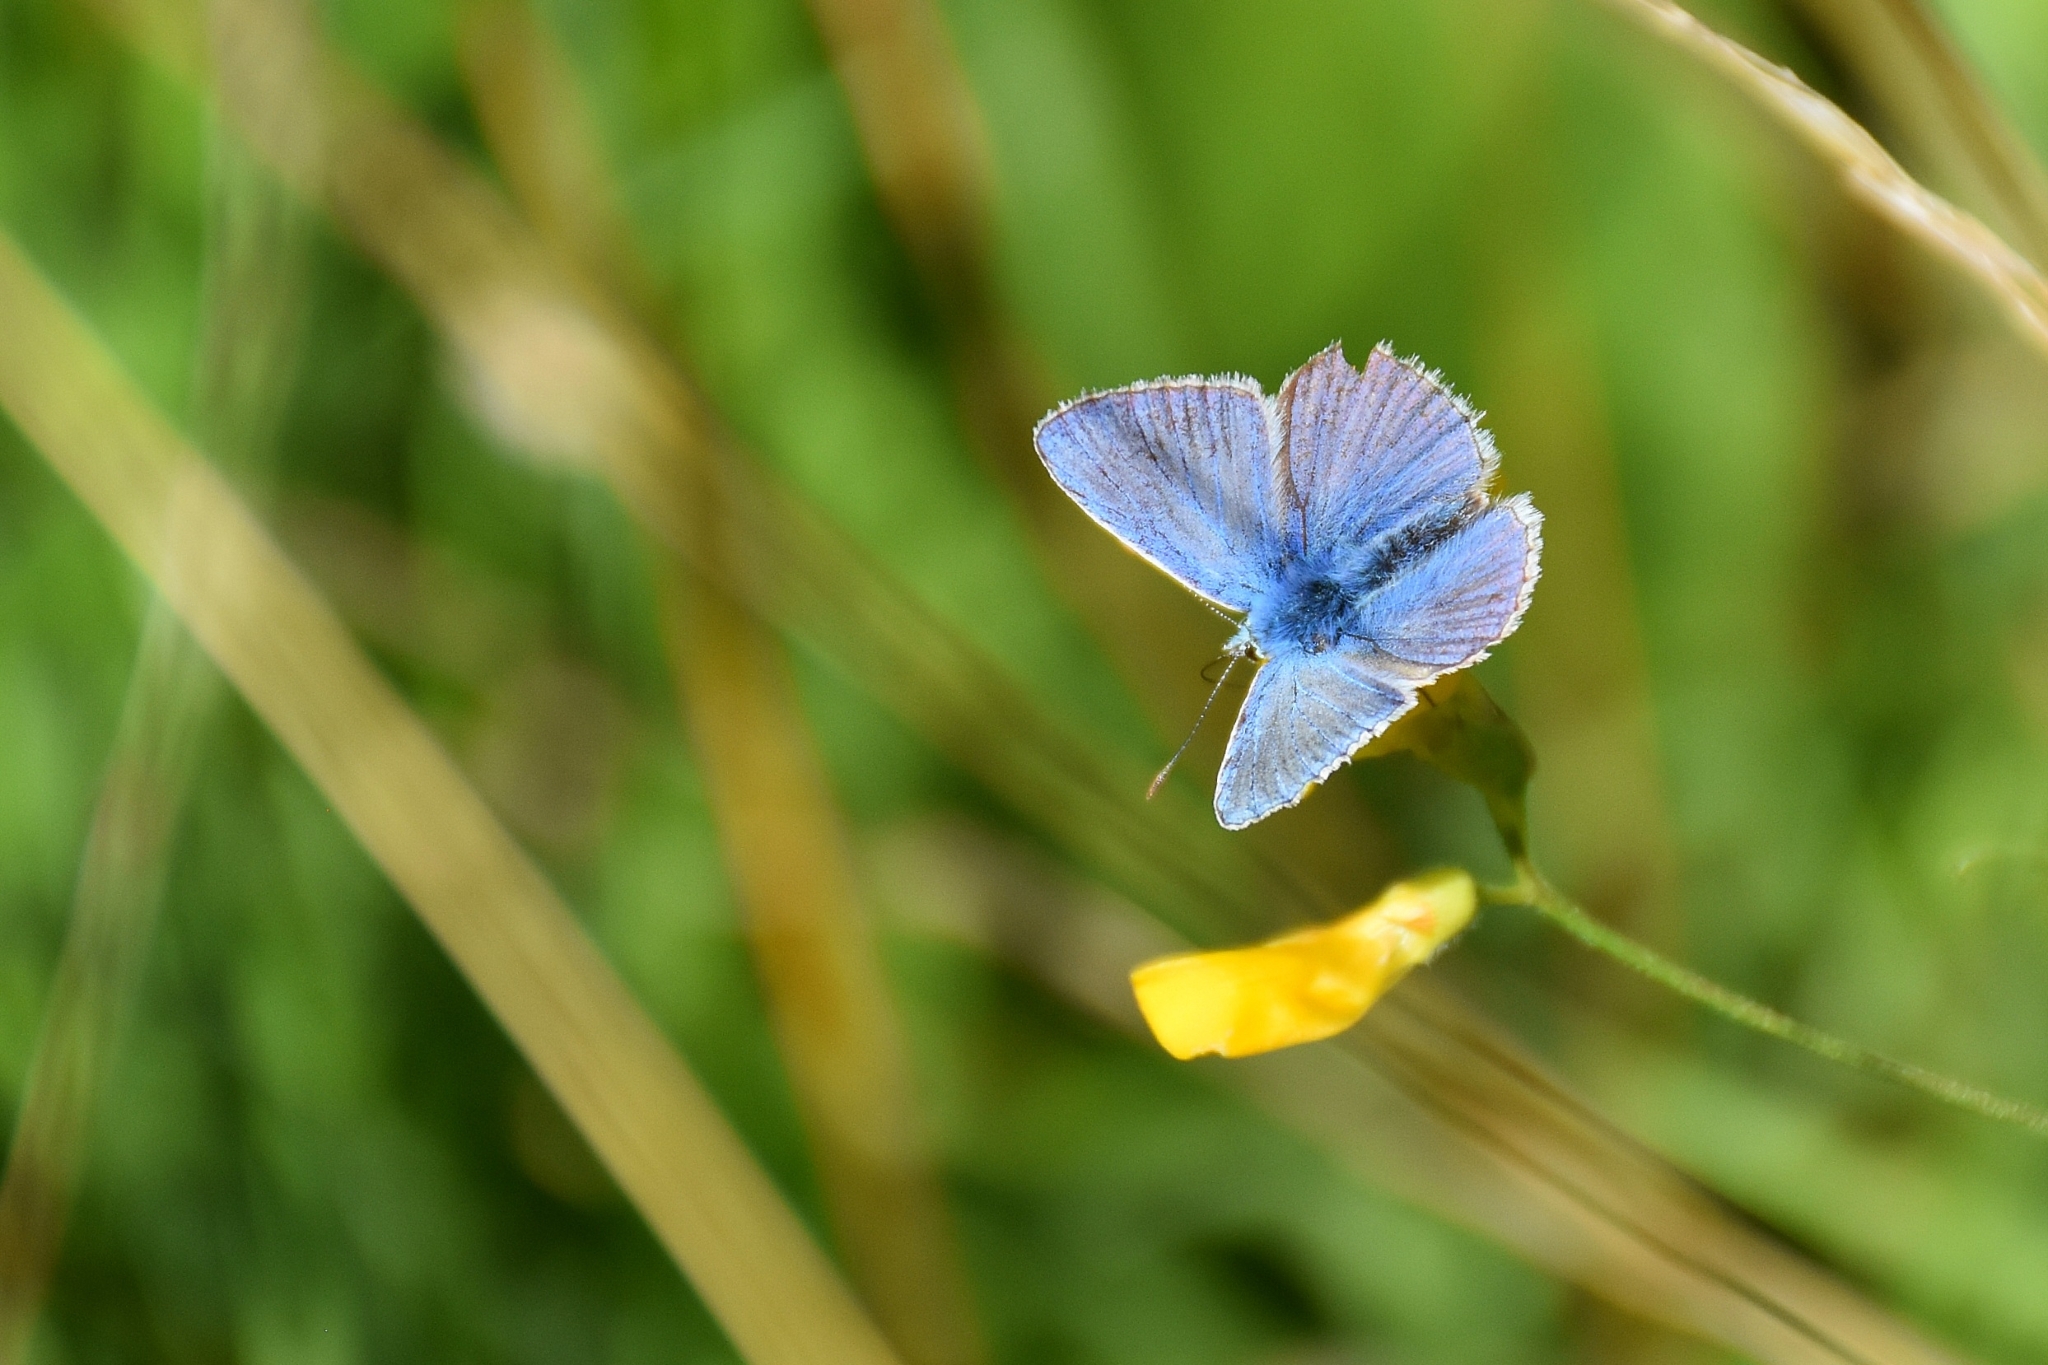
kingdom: Animalia
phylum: Arthropoda
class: Insecta
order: Lepidoptera
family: Lycaenidae
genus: Polyommatus
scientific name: Polyommatus icarus
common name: Common blue
